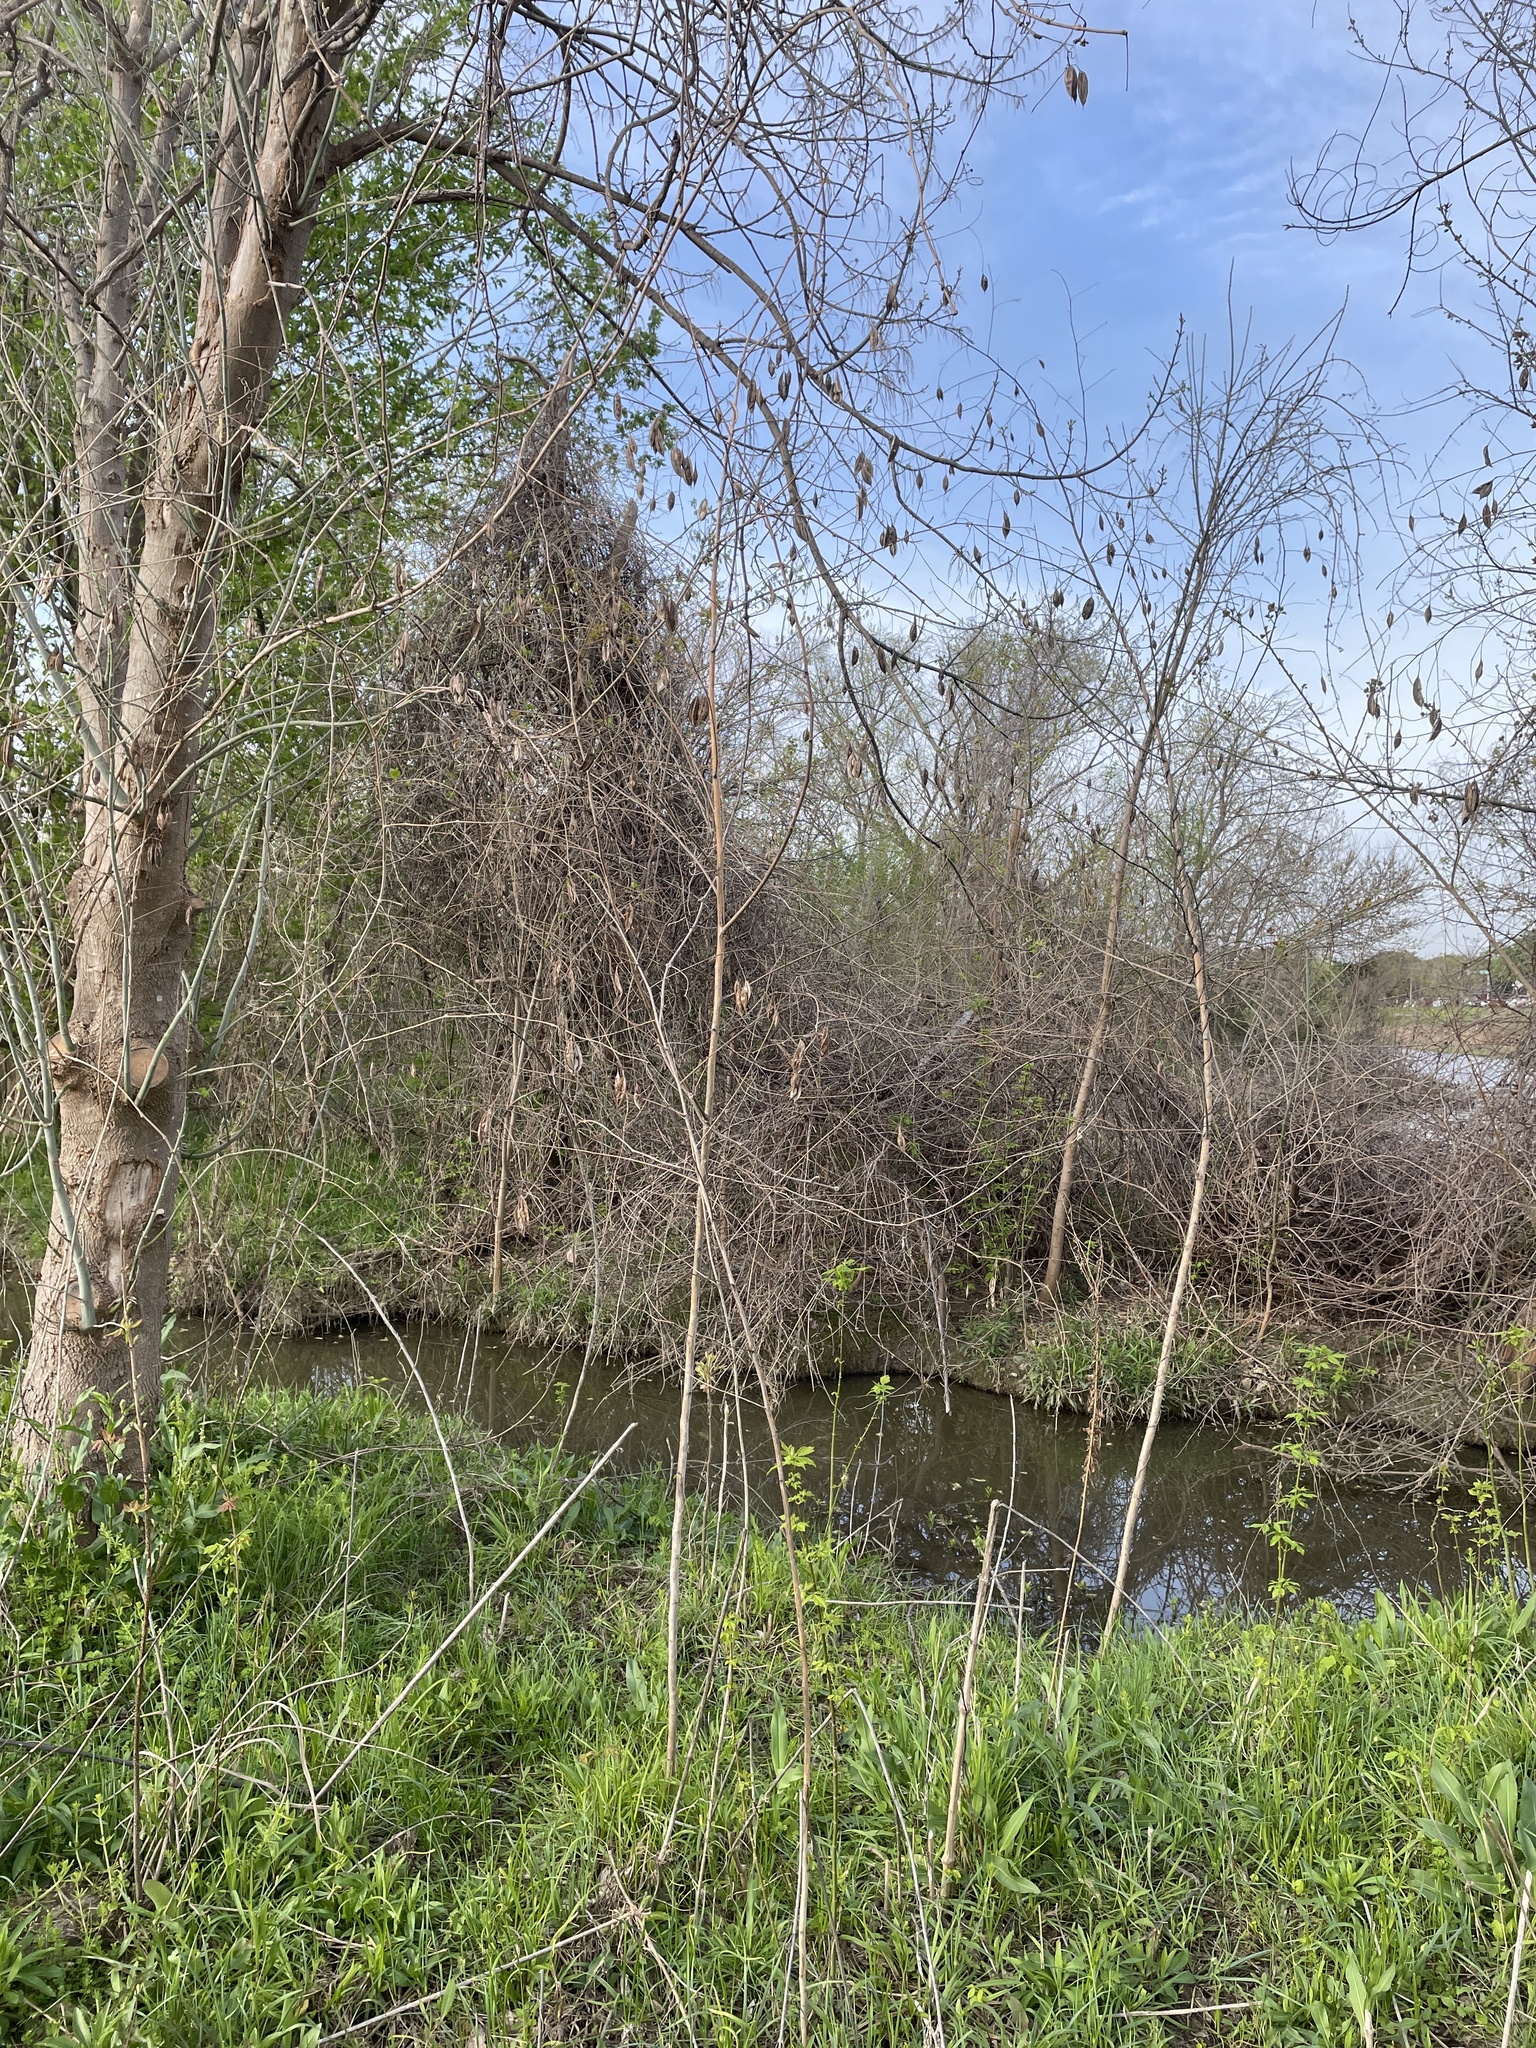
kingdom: Plantae
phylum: Tracheophyta
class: Magnoliopsida
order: Fabales
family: Fabaceae
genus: Sesbania
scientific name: Sesbania vesicaria
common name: Bagpod
